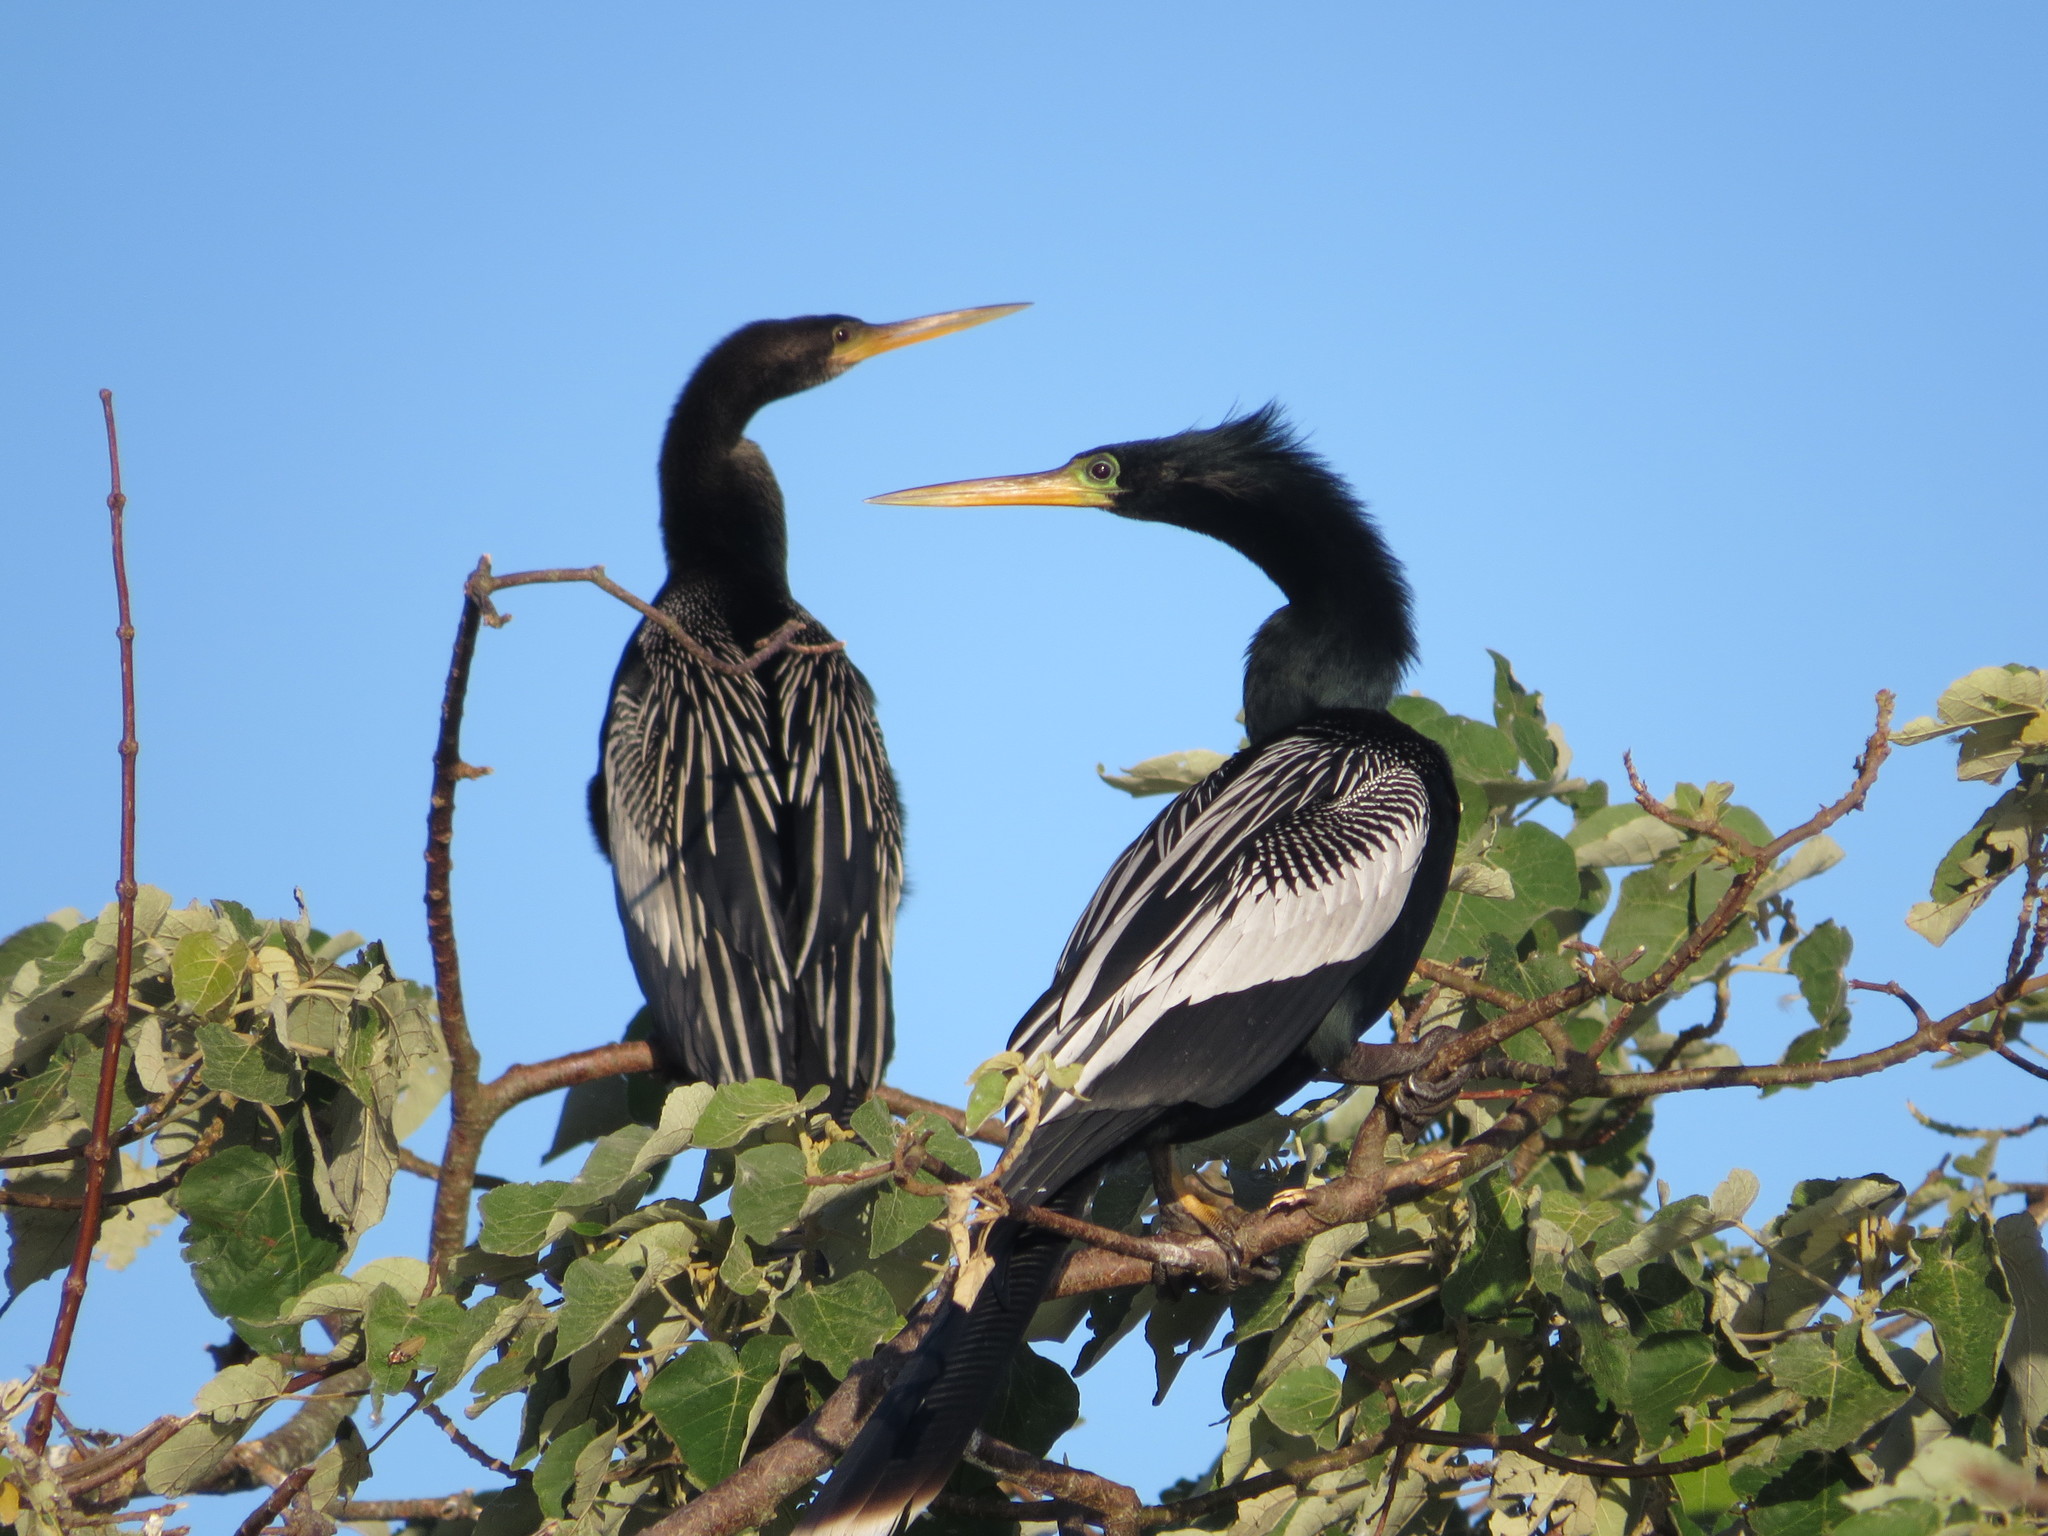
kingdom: Animalia
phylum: Chordata
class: Aves
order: Suliformes
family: Anhingidae
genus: Anhinga
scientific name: Anhinga anhinga
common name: Anhinga
